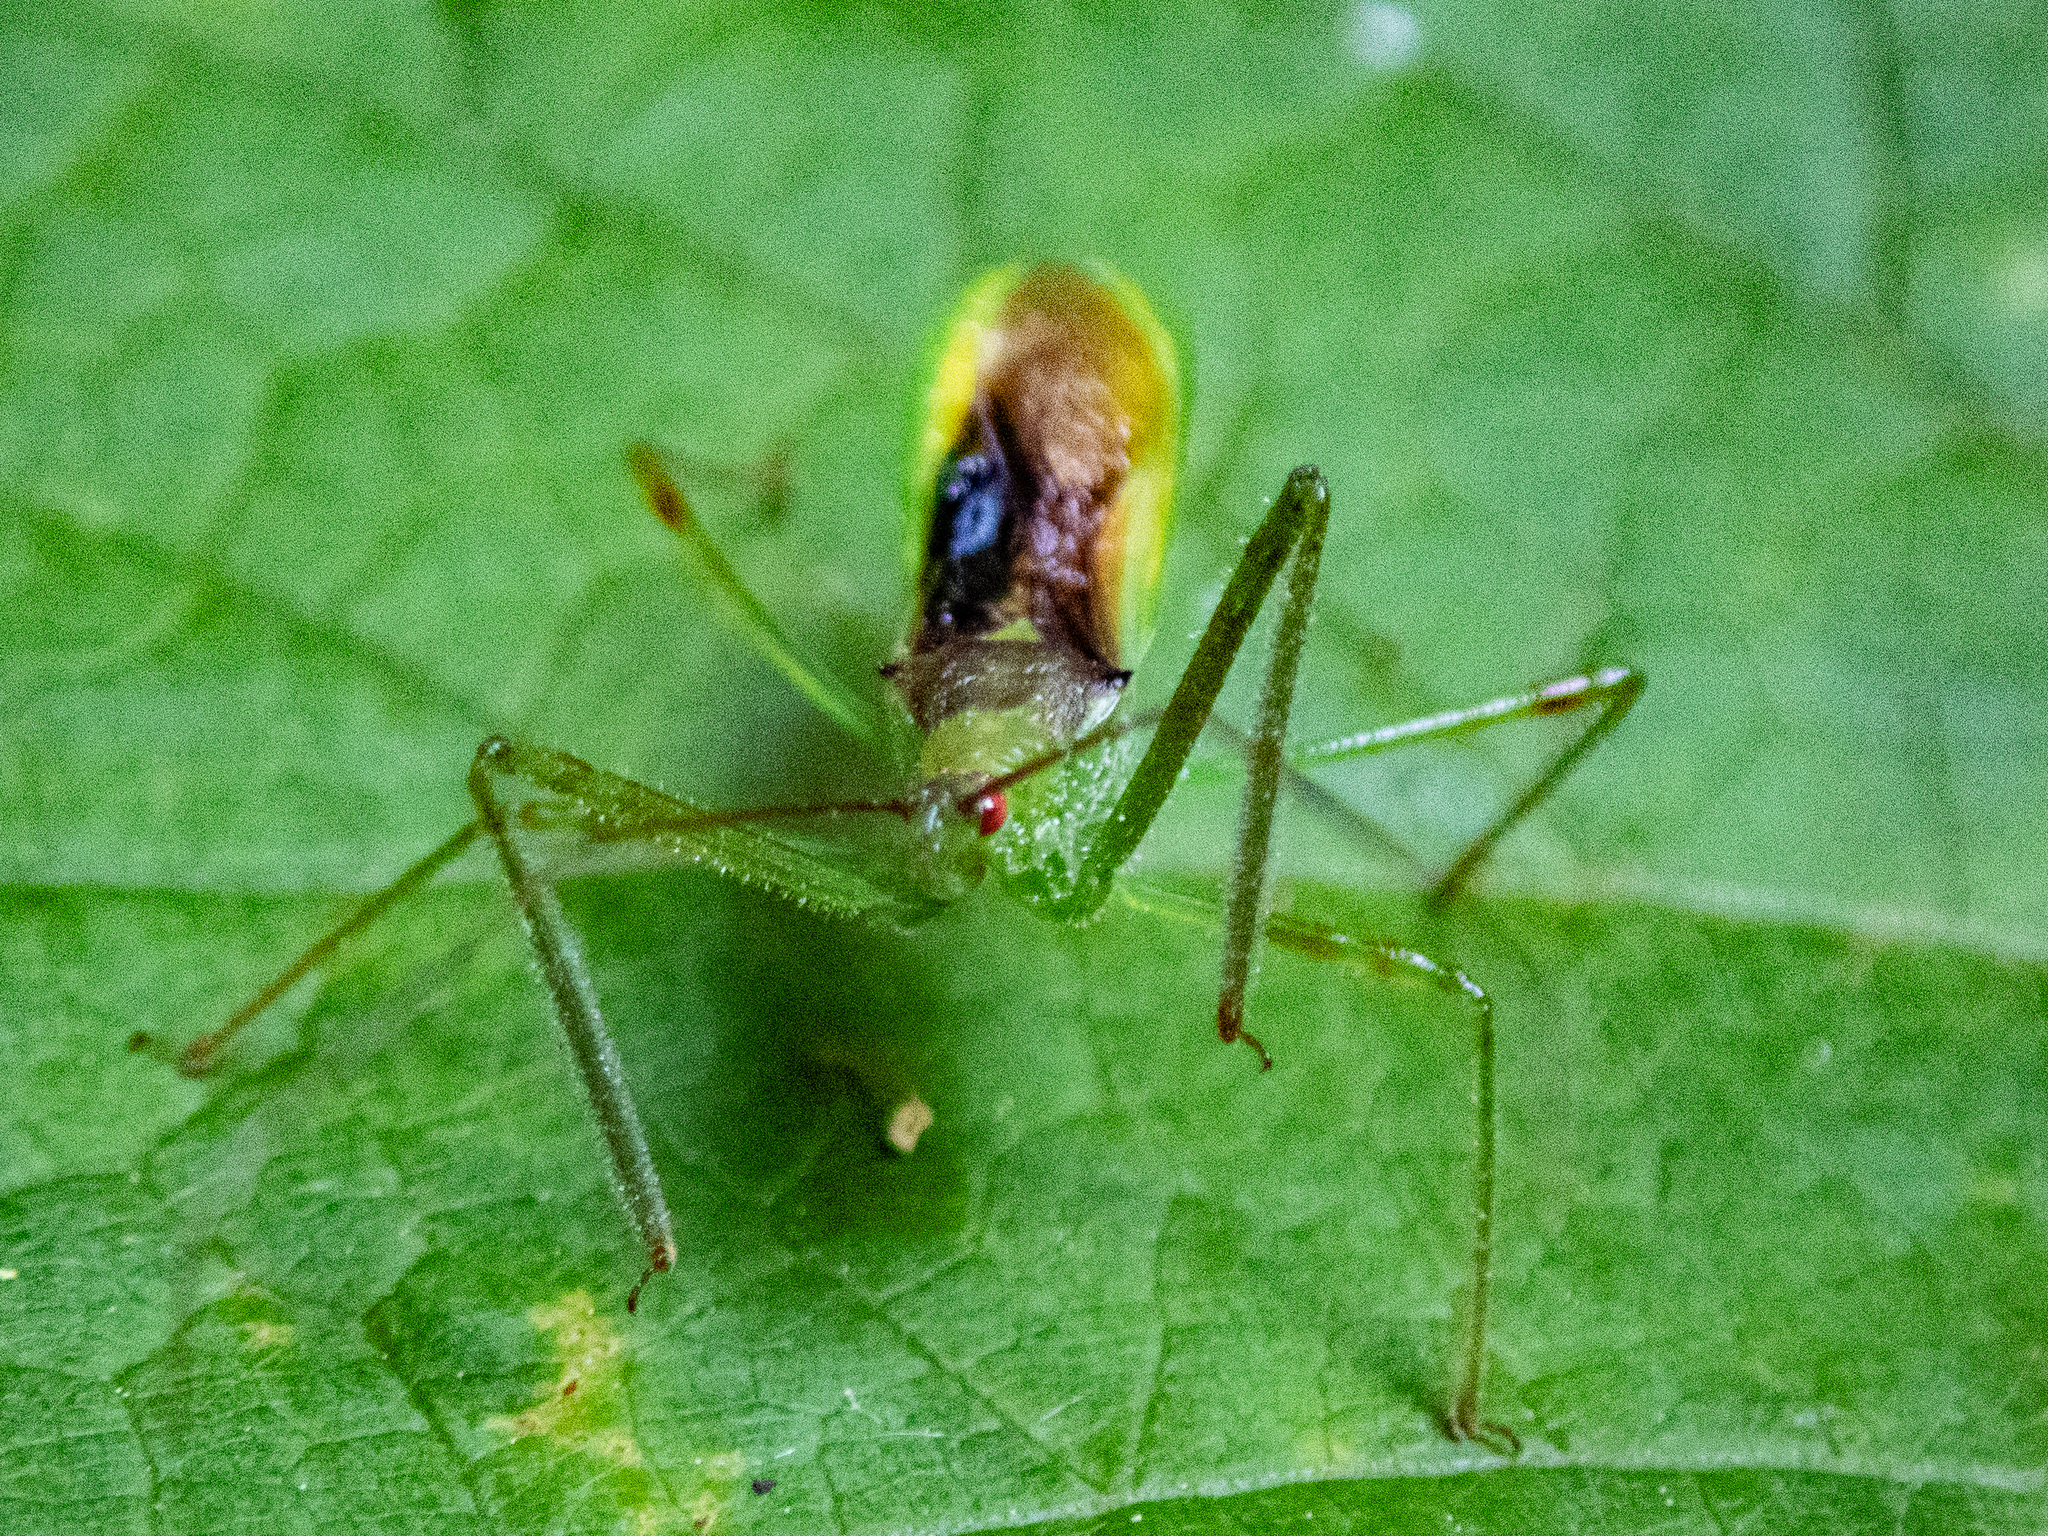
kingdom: Animalia
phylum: Arthropoda
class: Insecta
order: Hemiptera
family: Reduviidae
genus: Zelus
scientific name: Zelus luridus
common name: Pale green assassin bug
